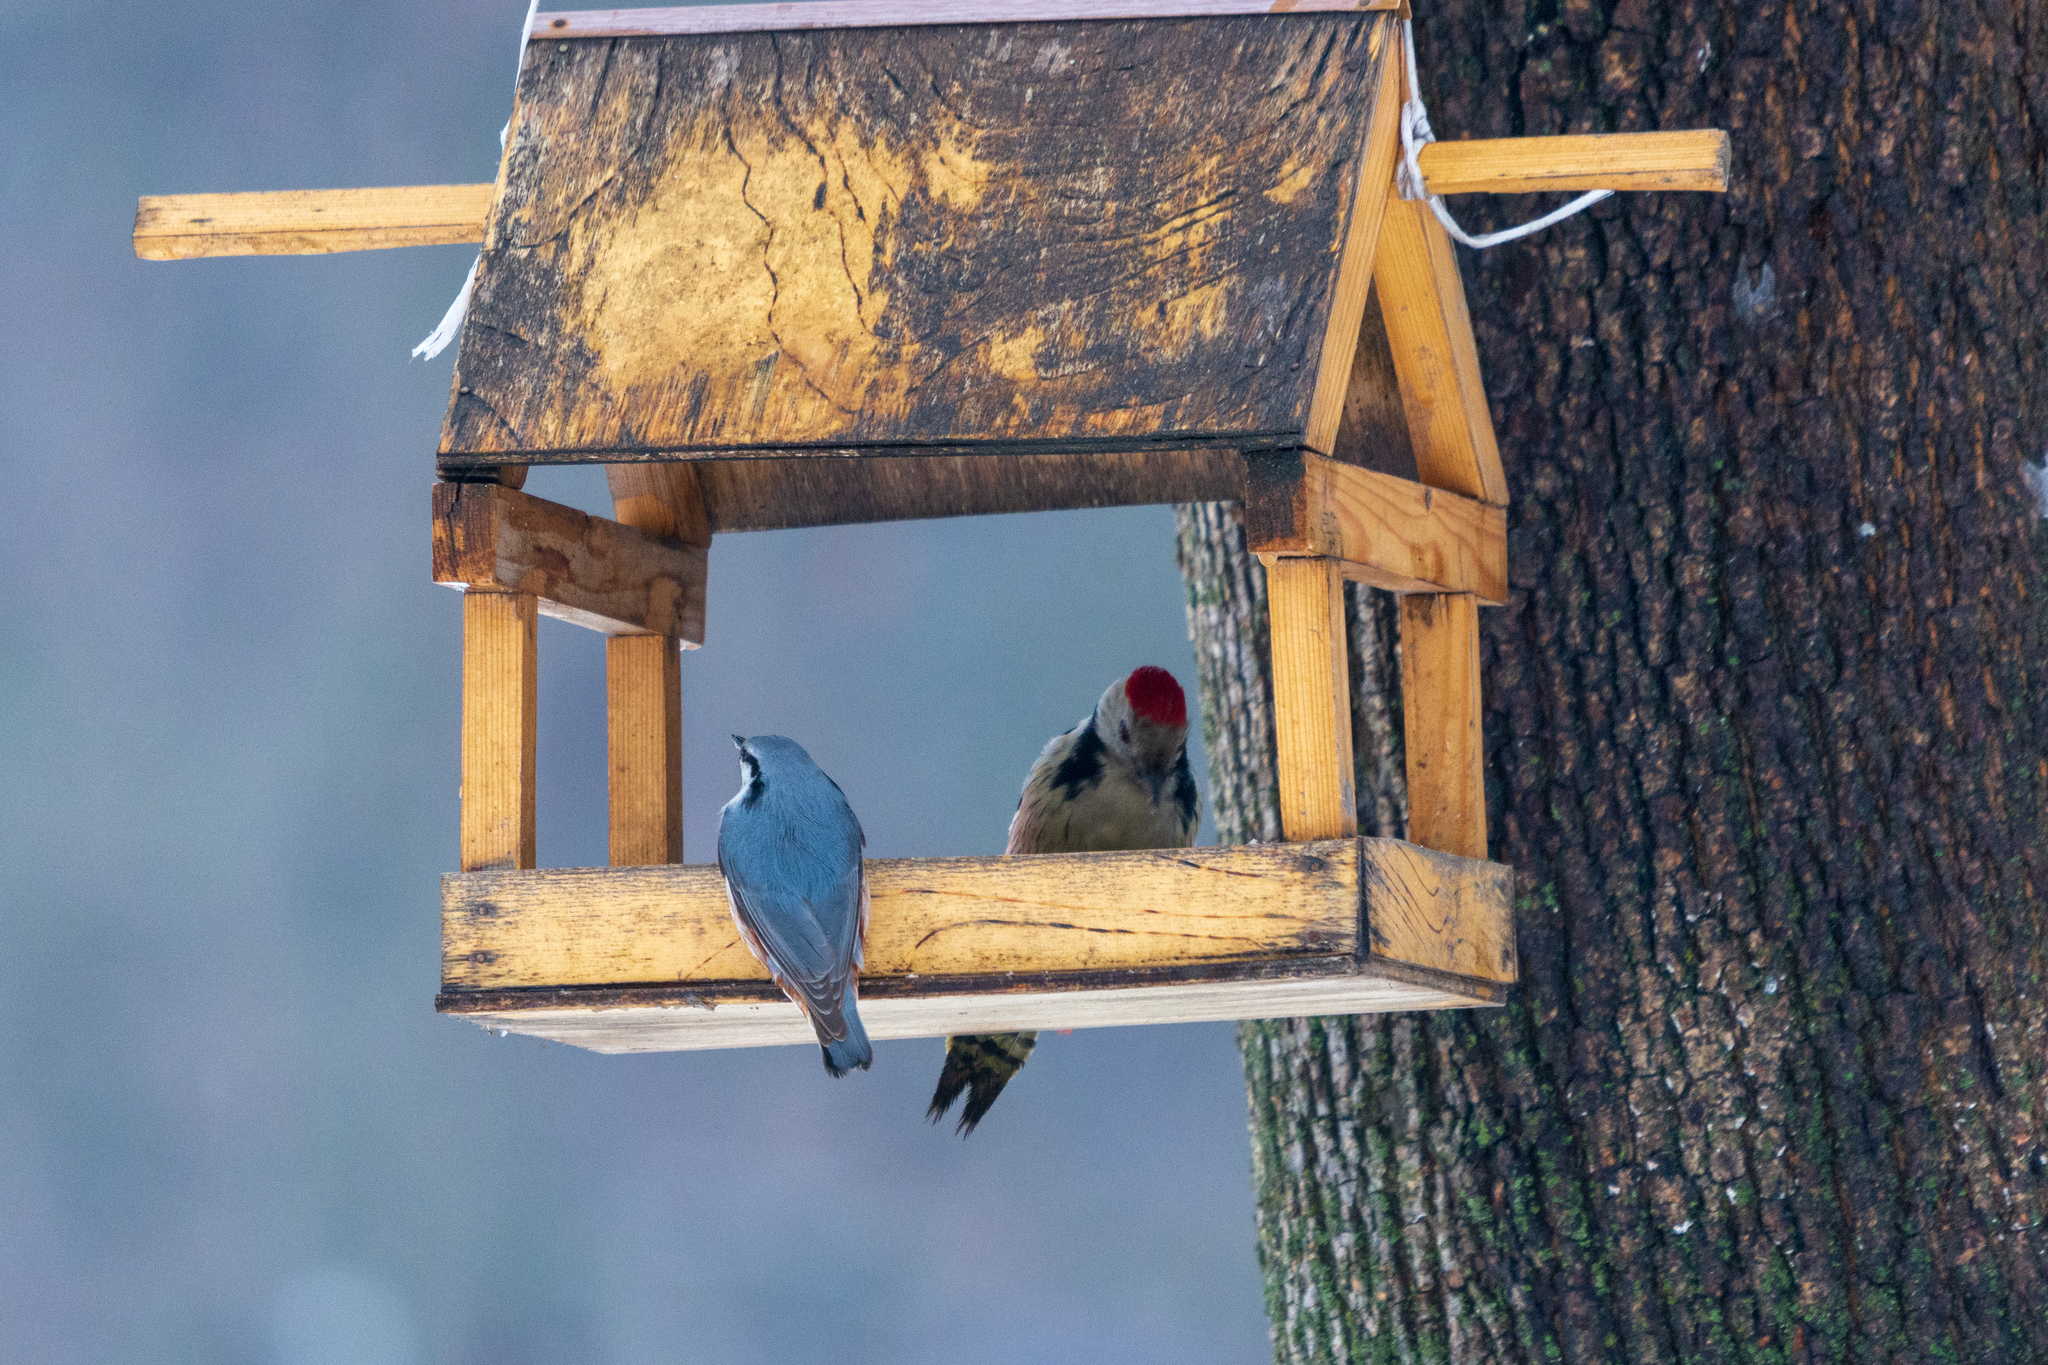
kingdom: Animalia
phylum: Chordata
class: Aves
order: Piciformes
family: Picidae
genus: Dendrocoptes
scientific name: Dendrocoptes medius
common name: Middle spotted woodpecker
